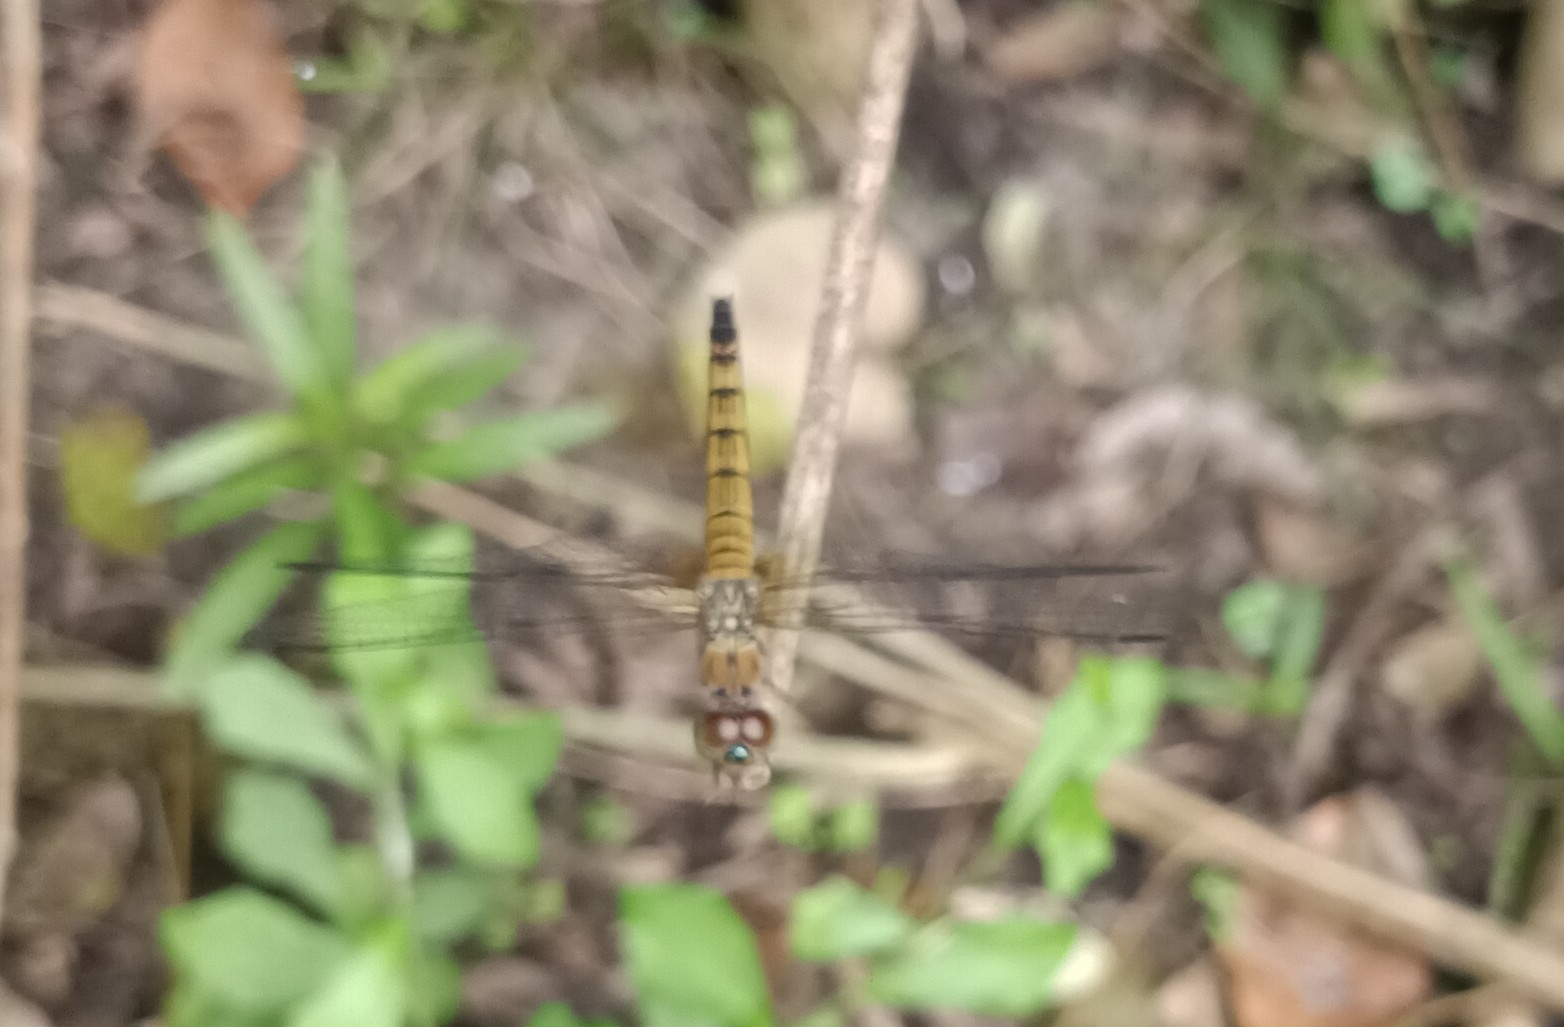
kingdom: Animalia
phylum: Arthropoda
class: Insecta
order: Odonata
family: Libellulidae
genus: Brachydiplax
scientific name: Brachydiplax chalybea
